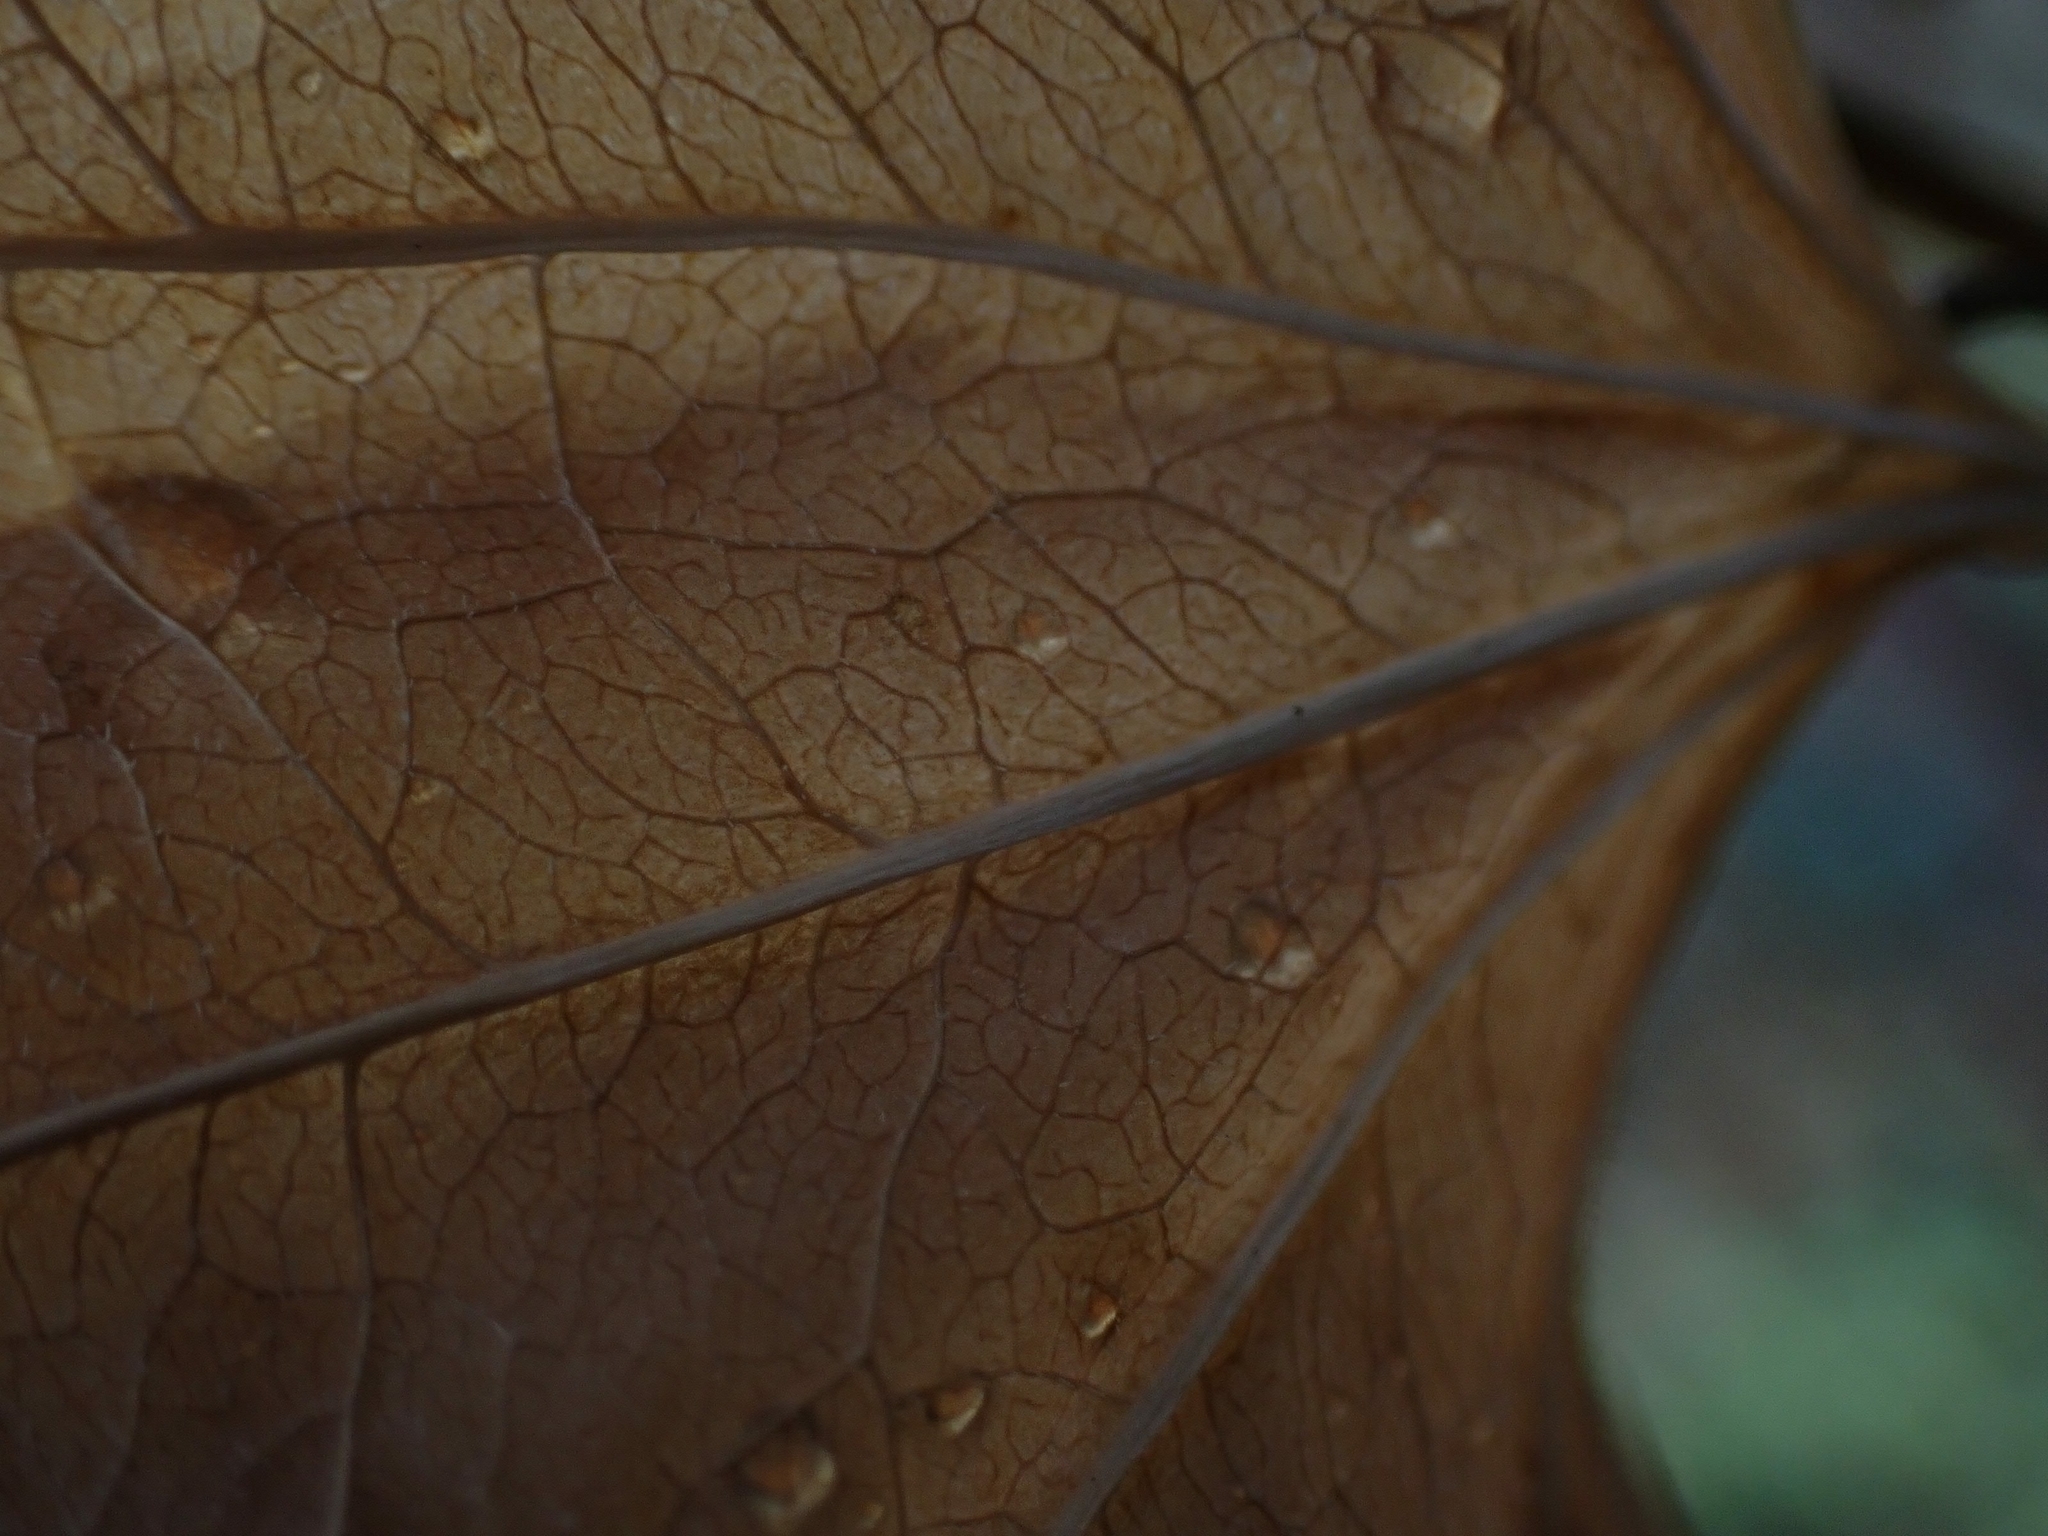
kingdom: Plantae
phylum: Tracheophyta
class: Liliopsida
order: Liliales
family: Smilacaceae
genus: Smilax
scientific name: Smilax lasioneura
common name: Blue ridge carrionflower
